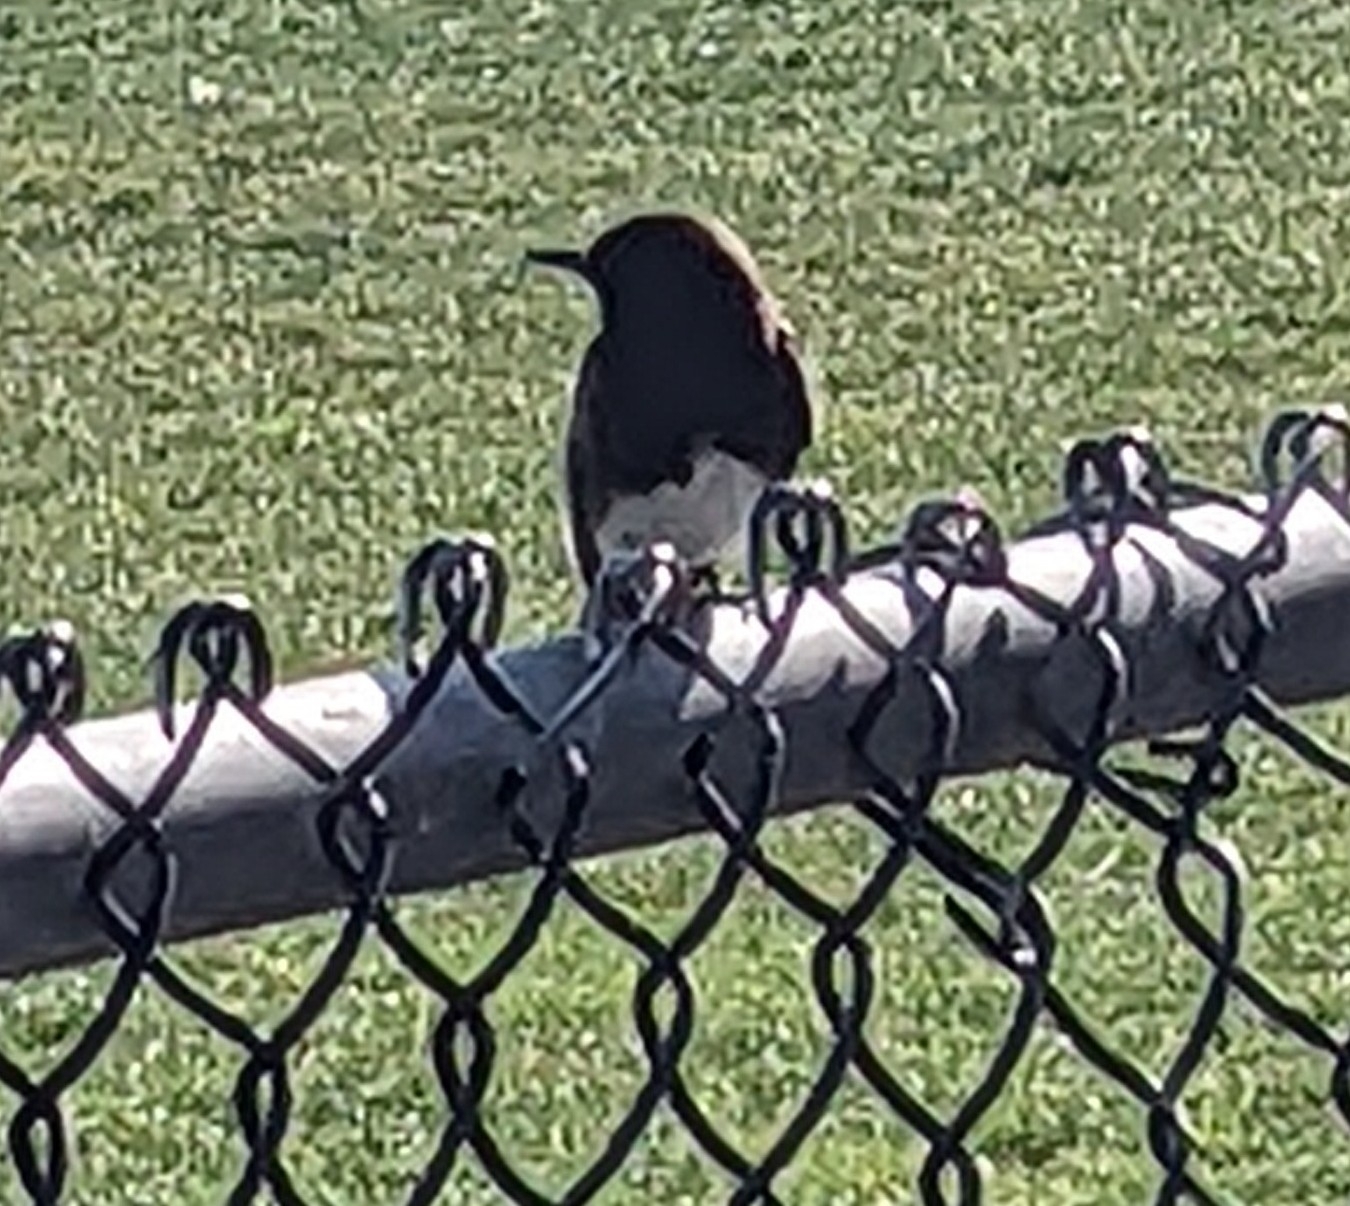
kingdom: Animalia
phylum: Chordata
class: Aves
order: Passeriformes
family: Tyrannidae
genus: Sayornis
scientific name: Sayornis nigricans
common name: Black phoebe
